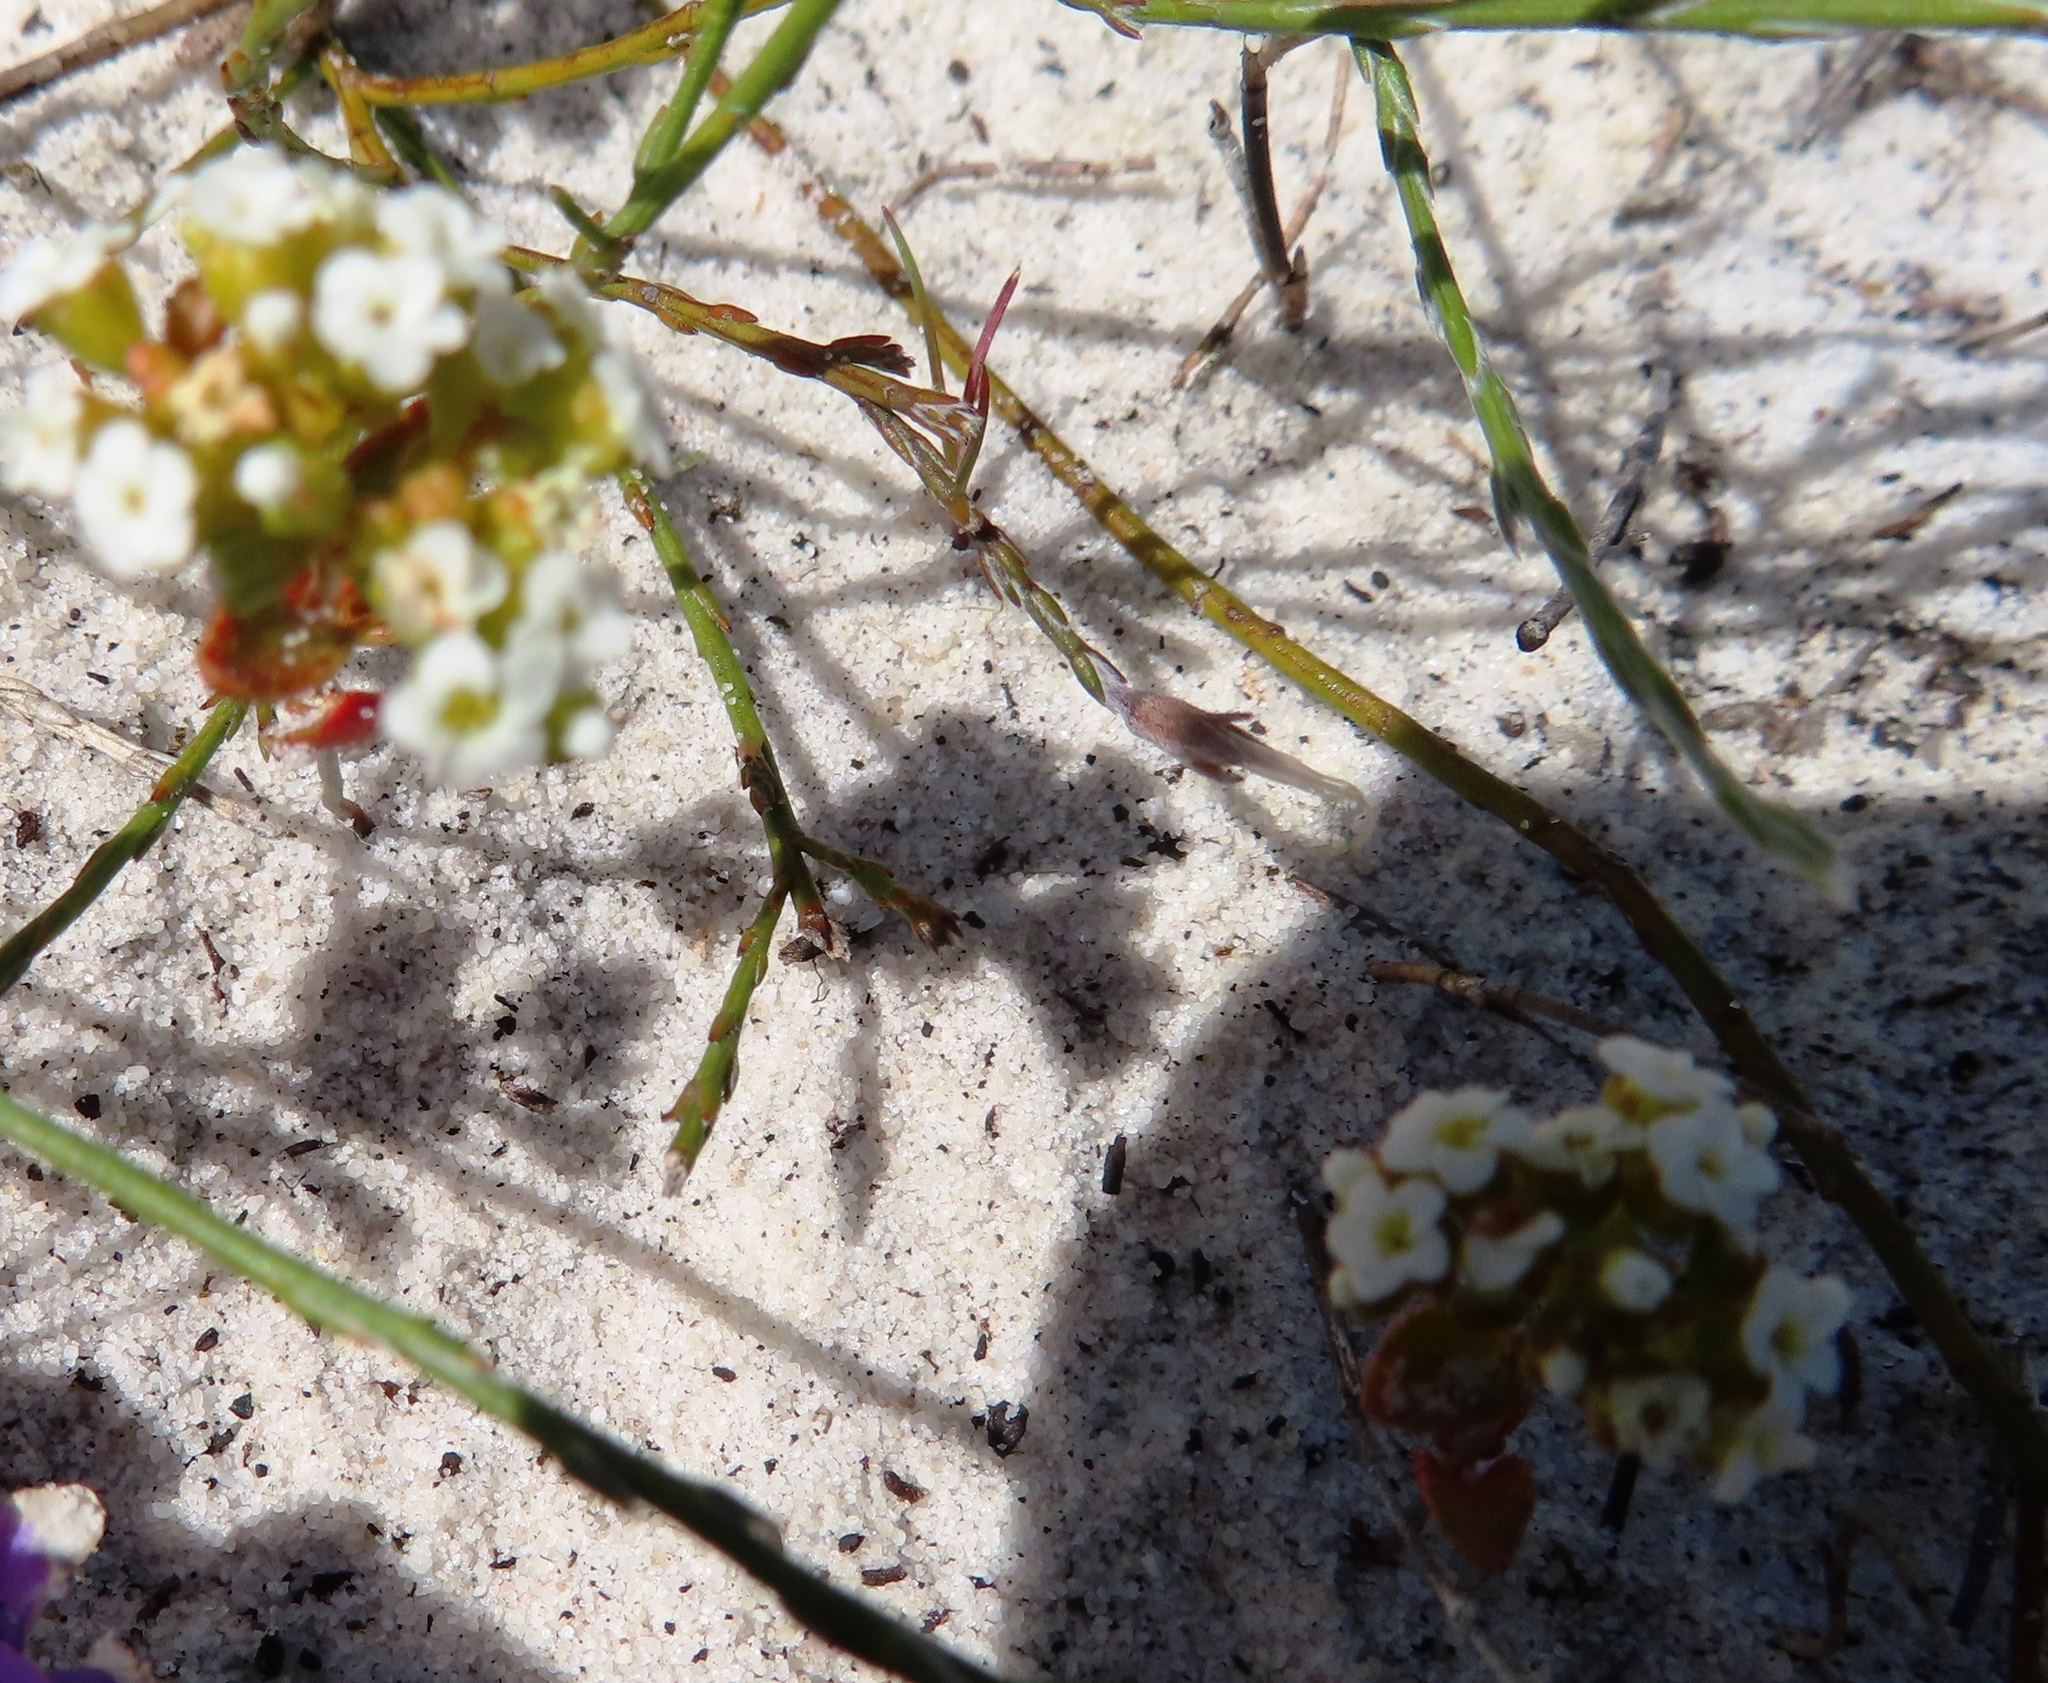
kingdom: Plantae
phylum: Tracheophyta
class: Magnoliopsida
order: Saxifragales
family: Crassulaceae
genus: Crassula
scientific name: Crassula filiformis
